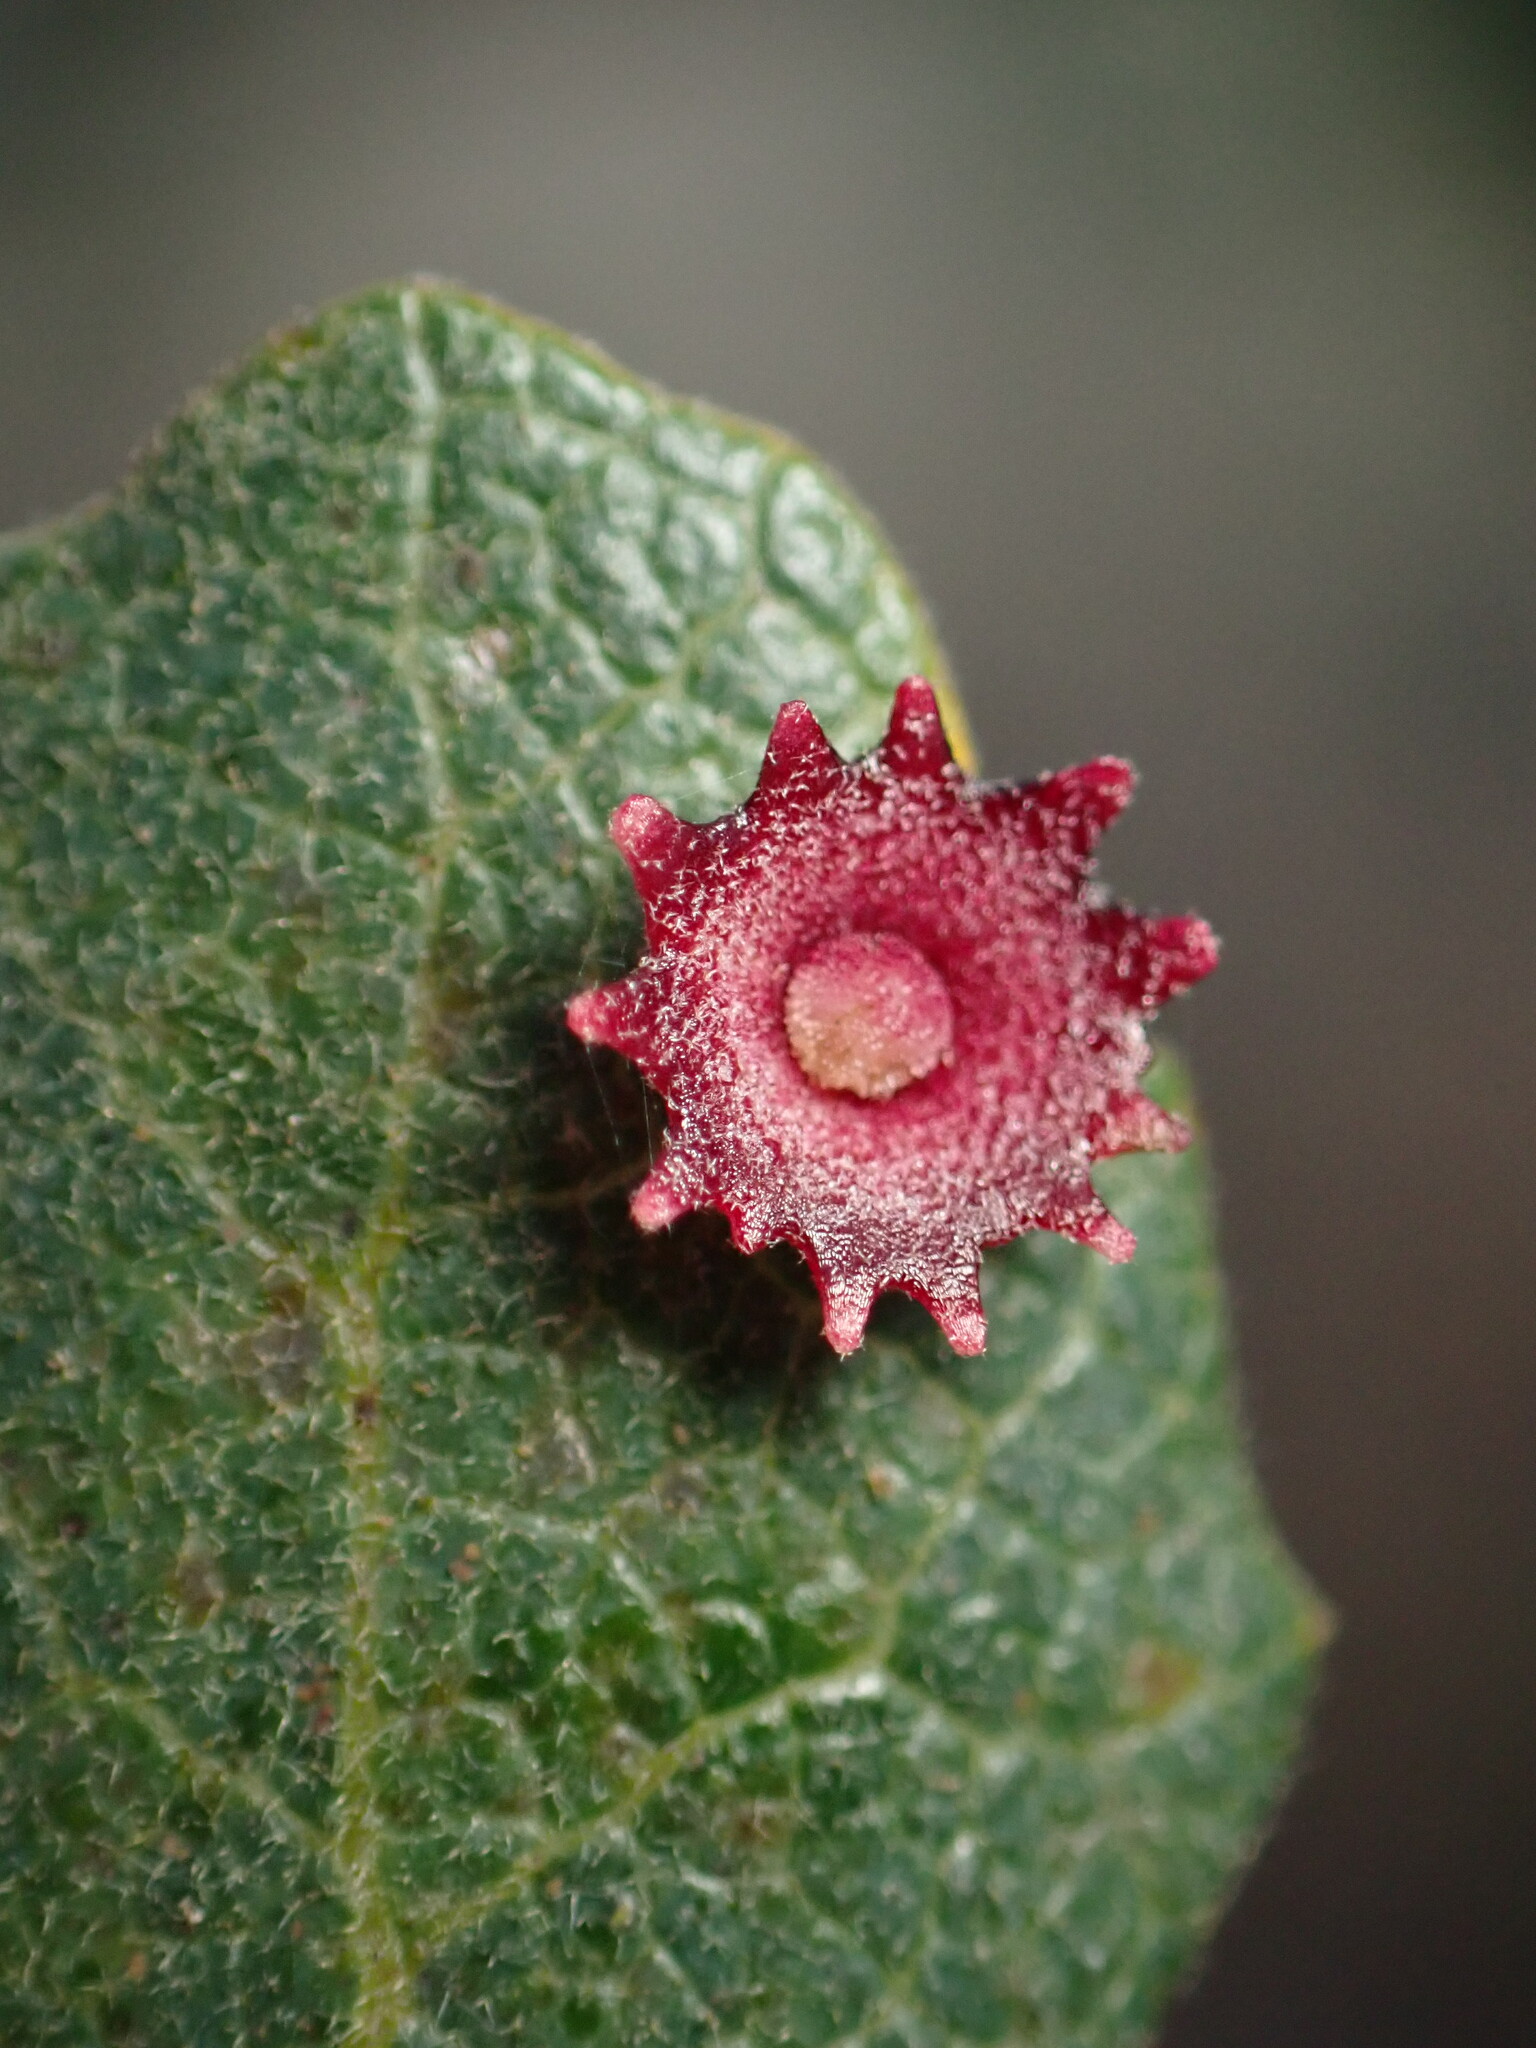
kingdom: Animalia
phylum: Arthropoda
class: Insecta
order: Hymenoptera
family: Cynipidae
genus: Andricus
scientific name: Andricus
